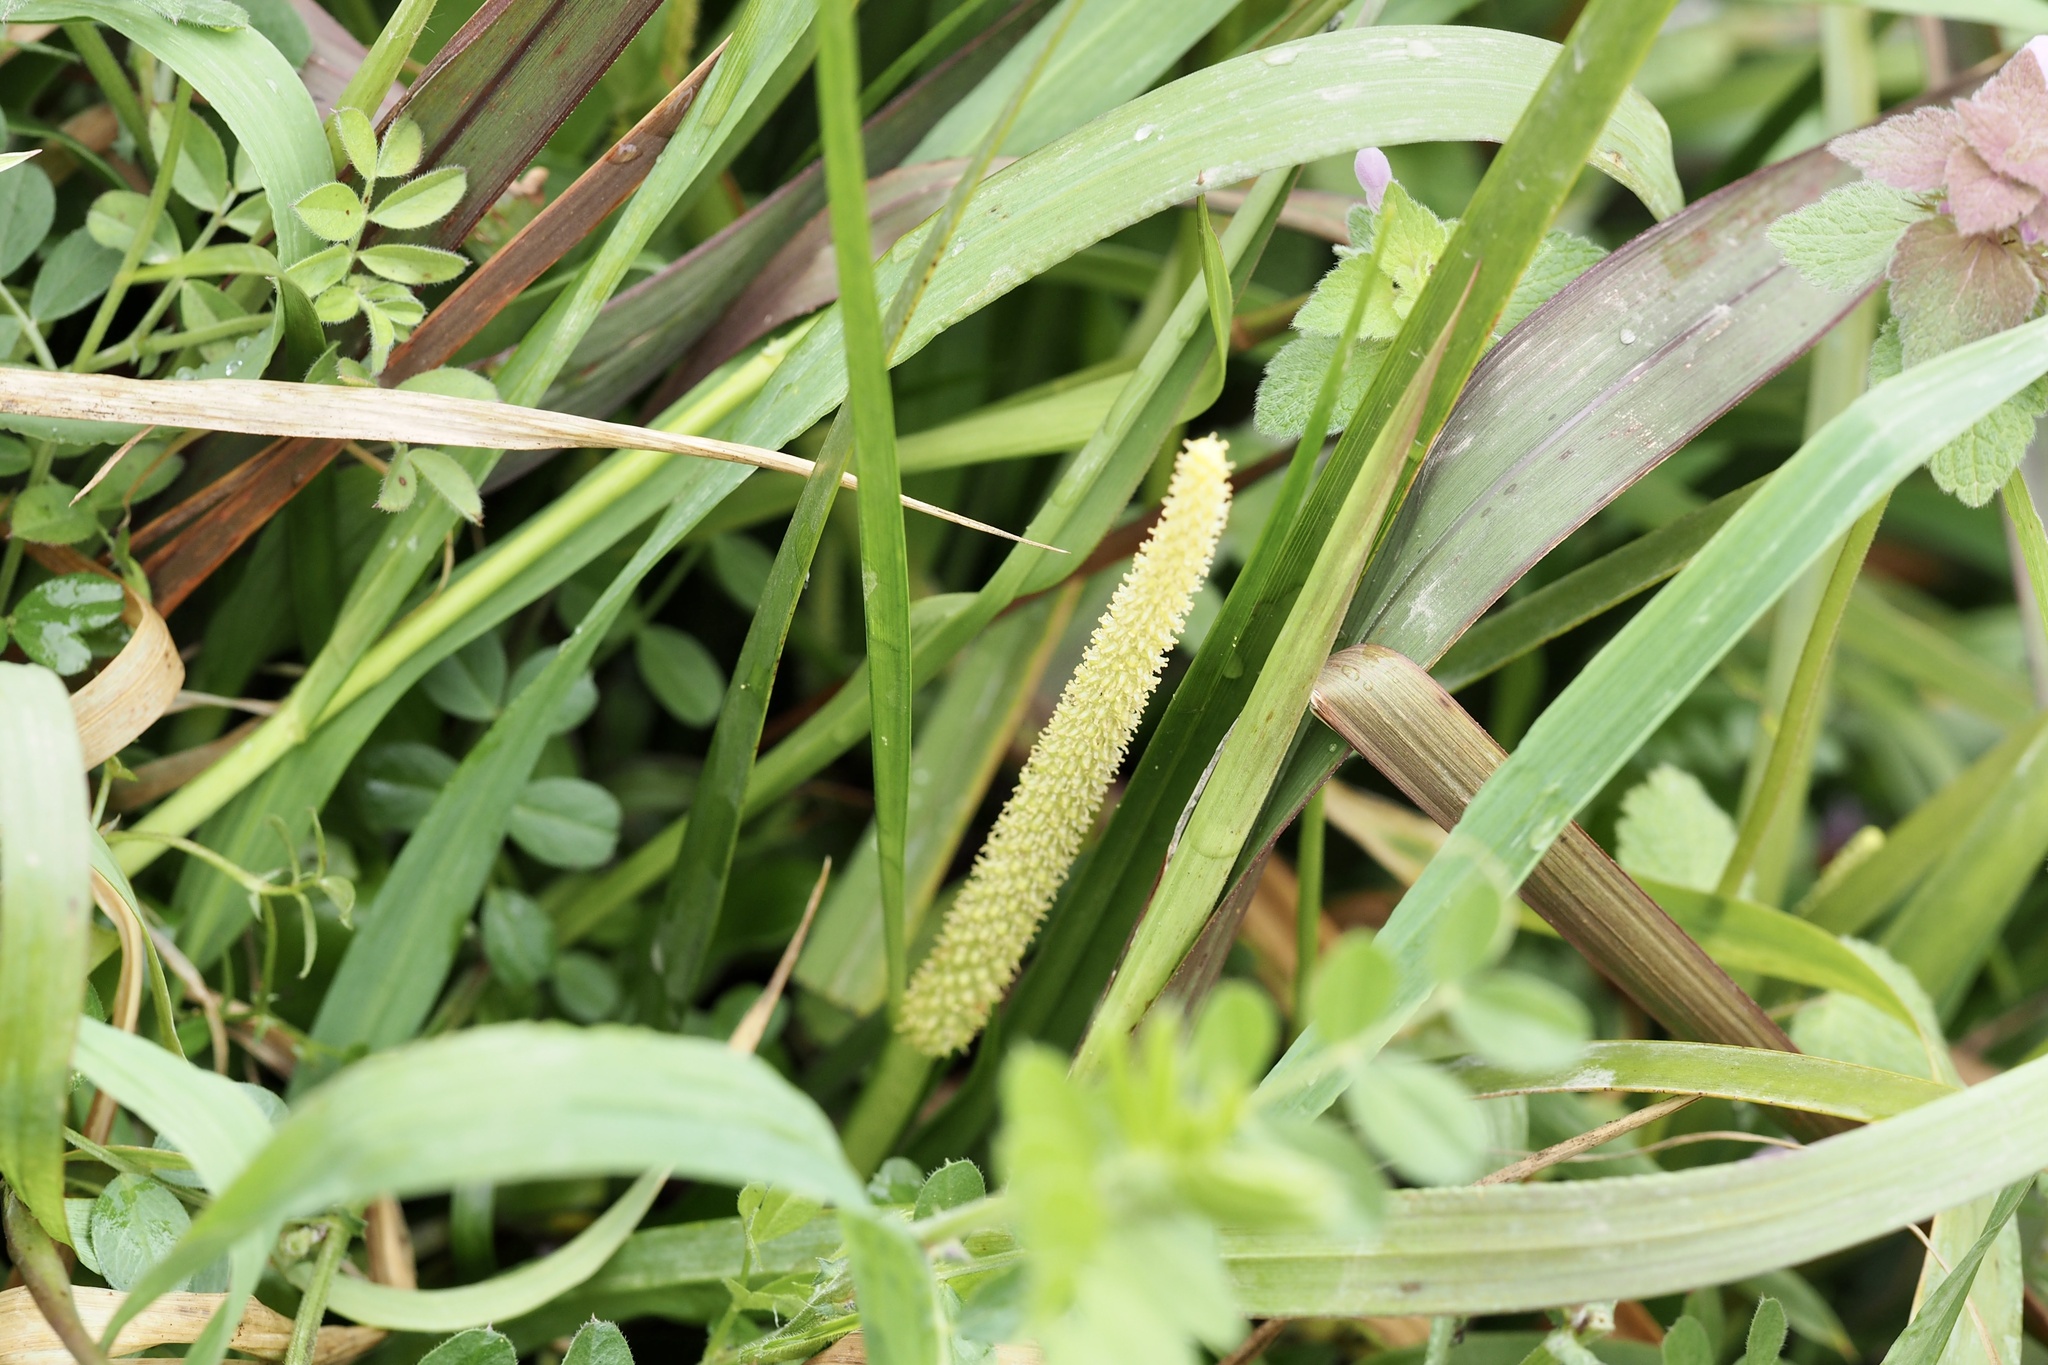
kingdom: Plantae
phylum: Tracheophyta
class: Liliopsida
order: Acorales
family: Acoraceae
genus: Acorus
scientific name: Acorus gramineus
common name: Slender sweet-flag
